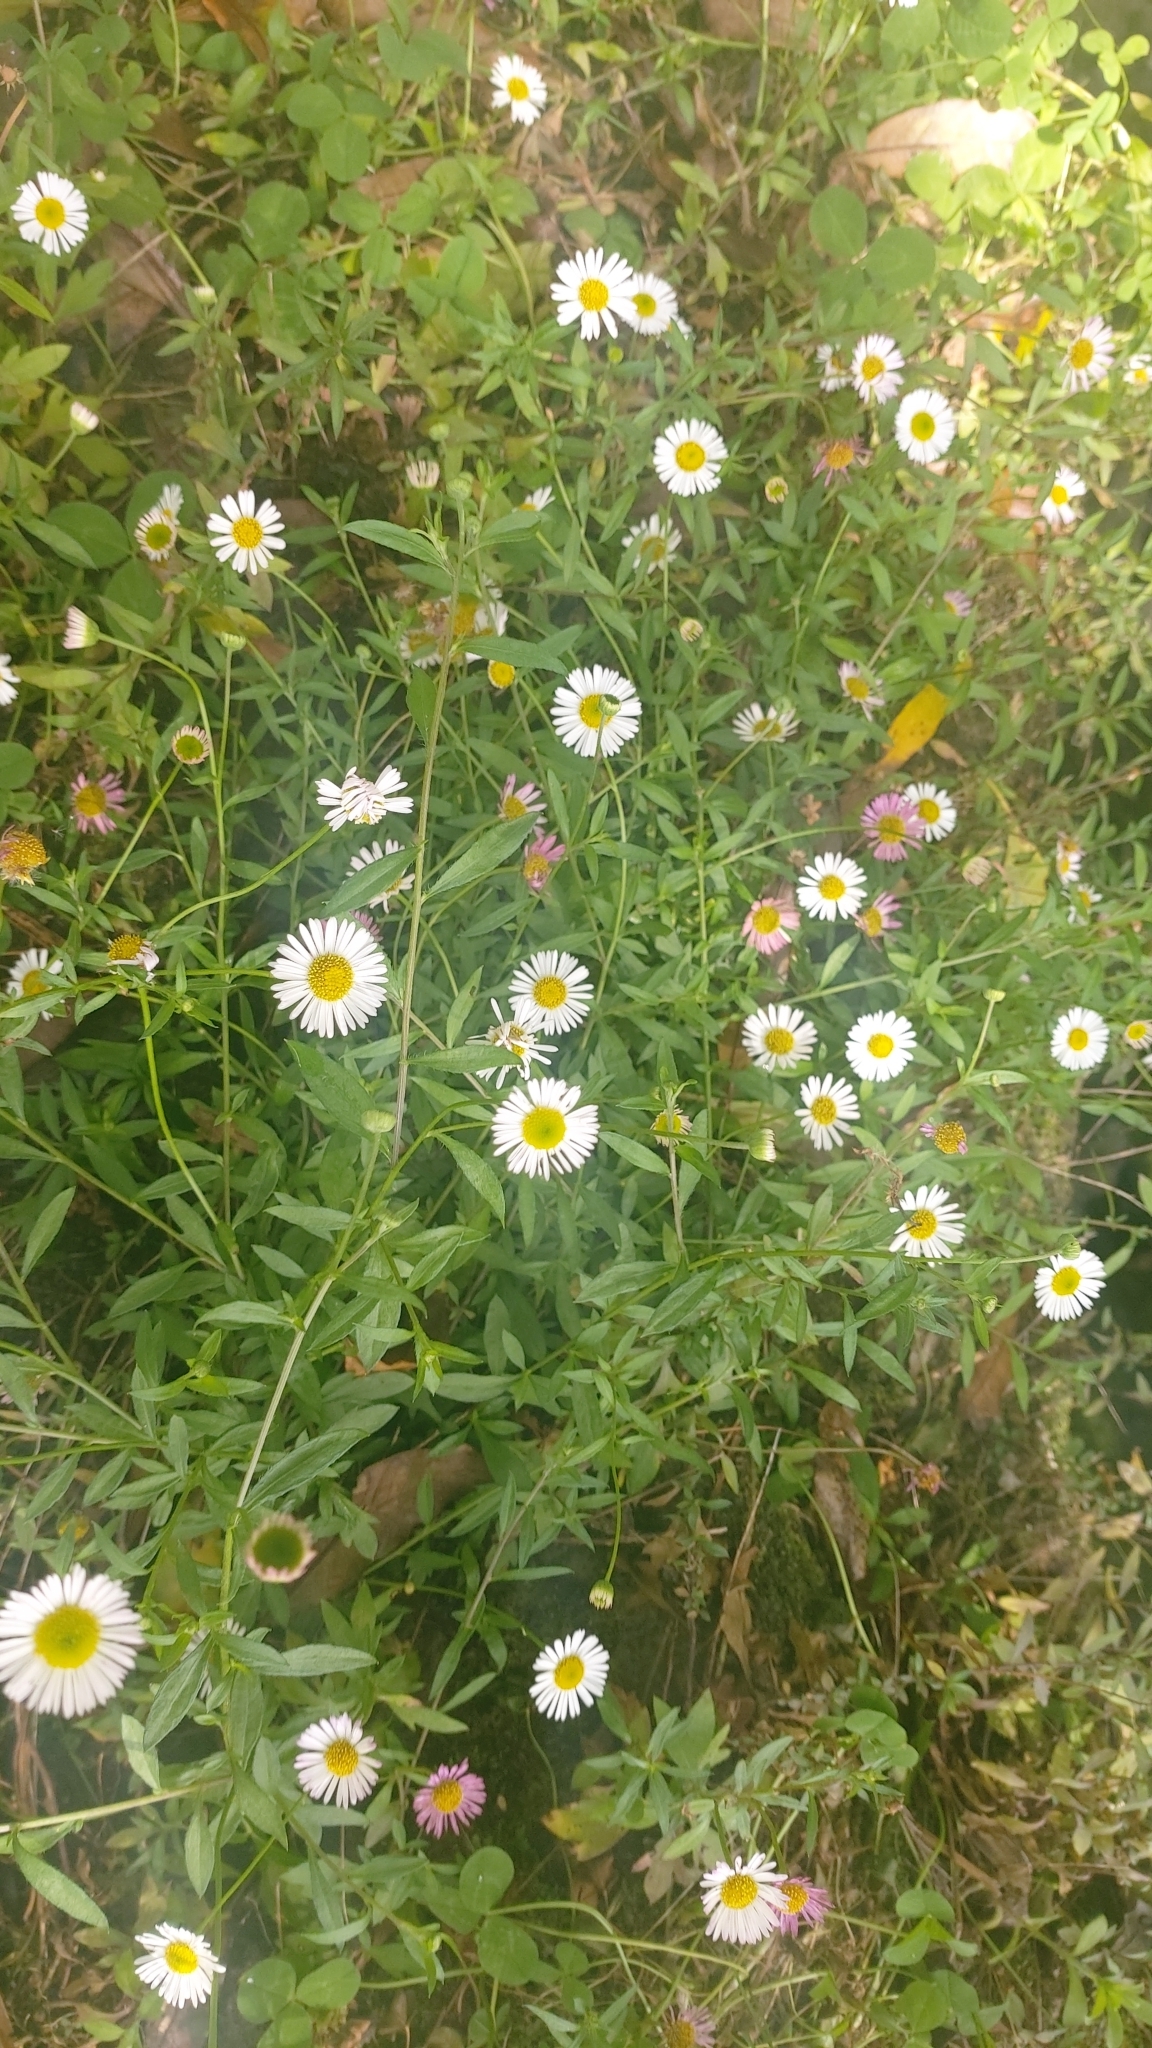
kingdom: Plantae
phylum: Tracheophyta
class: Magnoliopsida
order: Asterales
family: Asteraceae
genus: Erigeron
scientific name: Erigeron karvinskianus
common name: Mexican fleabane
